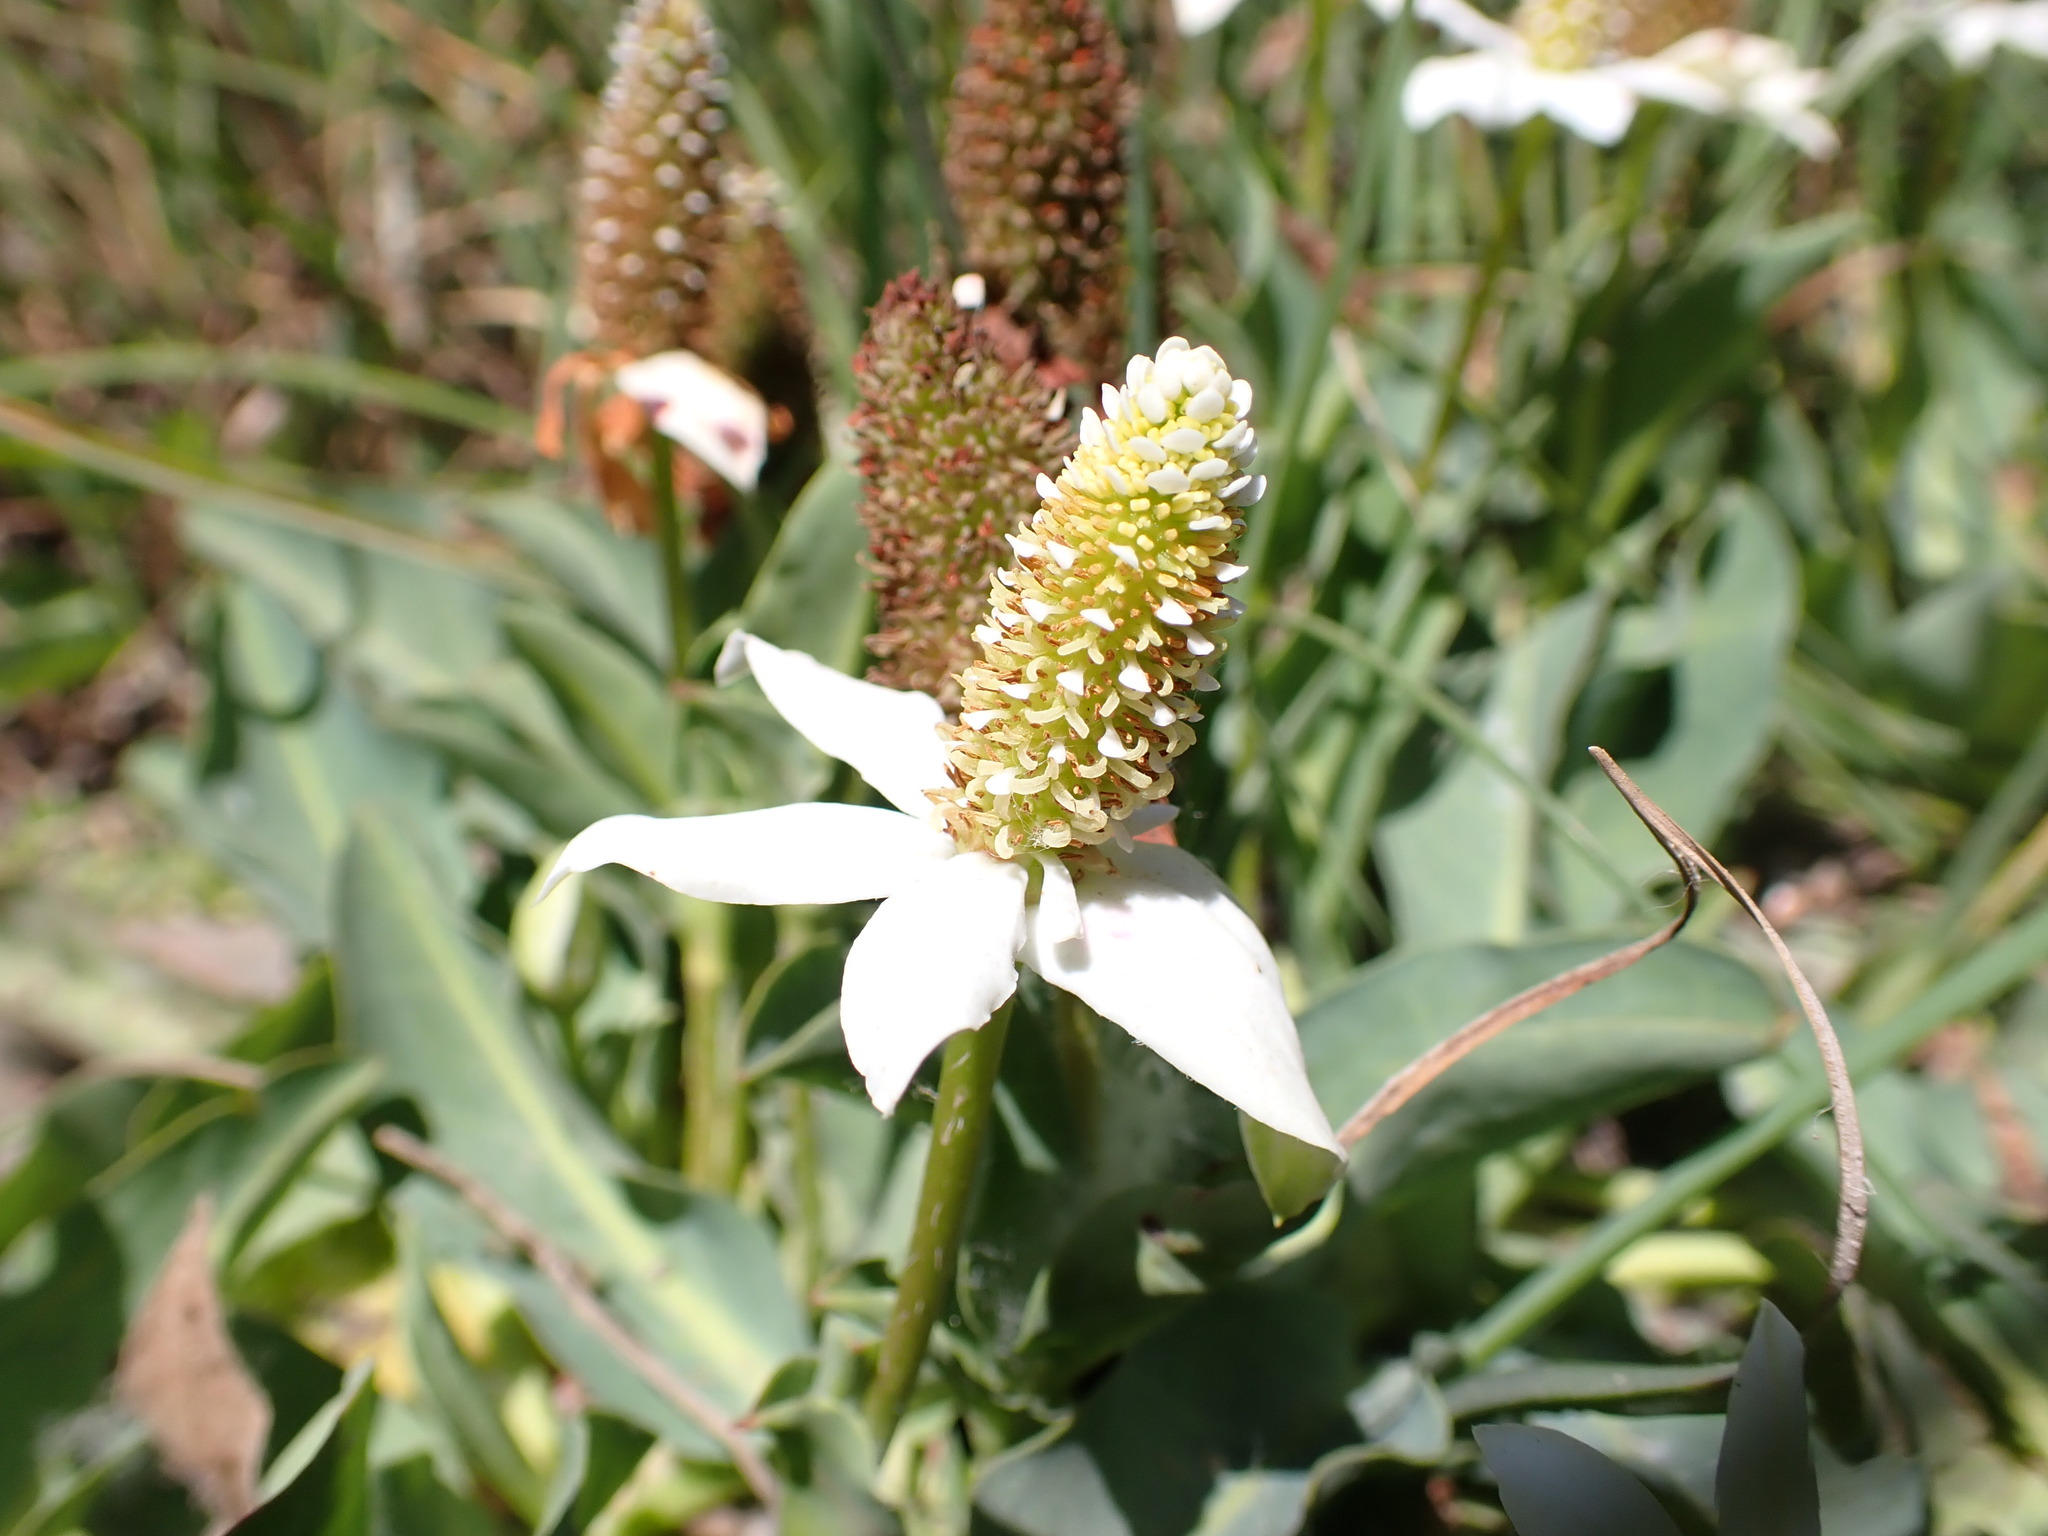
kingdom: Plantae
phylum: Tracheophyta
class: Magnoliopsida
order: Piperales
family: Saururaceae
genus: Anemopsis
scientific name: Anemopsis californica
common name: Apache-beads
